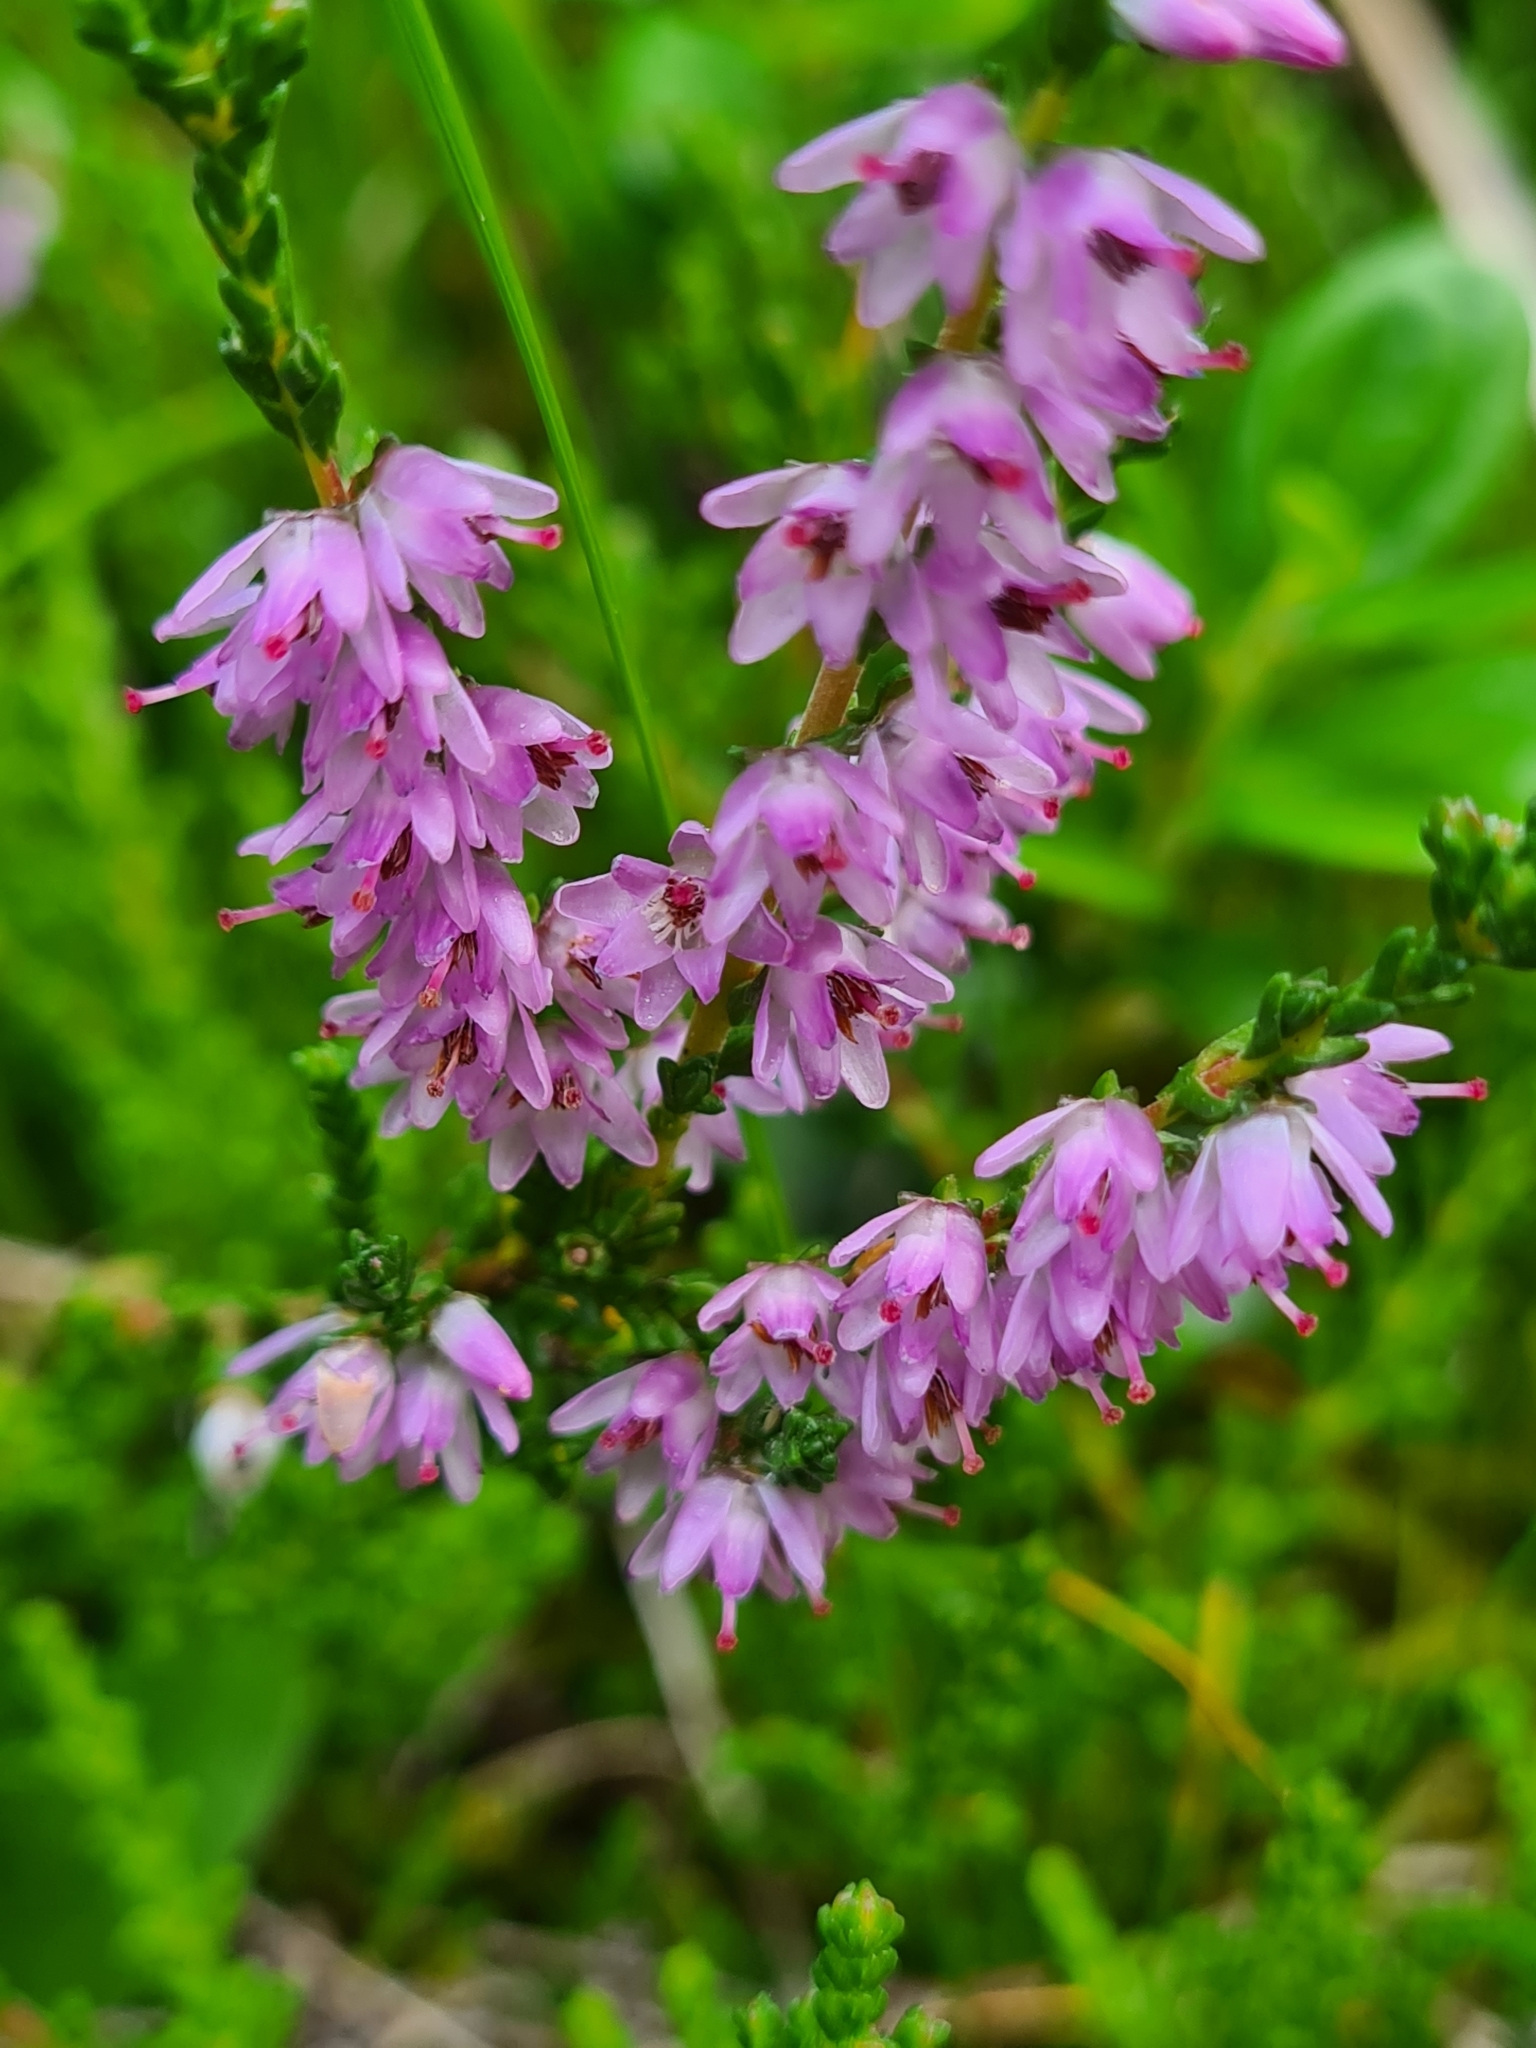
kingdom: Plantae
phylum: Tracheophyta
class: Magnoliopsida
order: Ericales
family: Ericaceae
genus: Calluna
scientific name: Calluna vulgaris
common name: Heather
